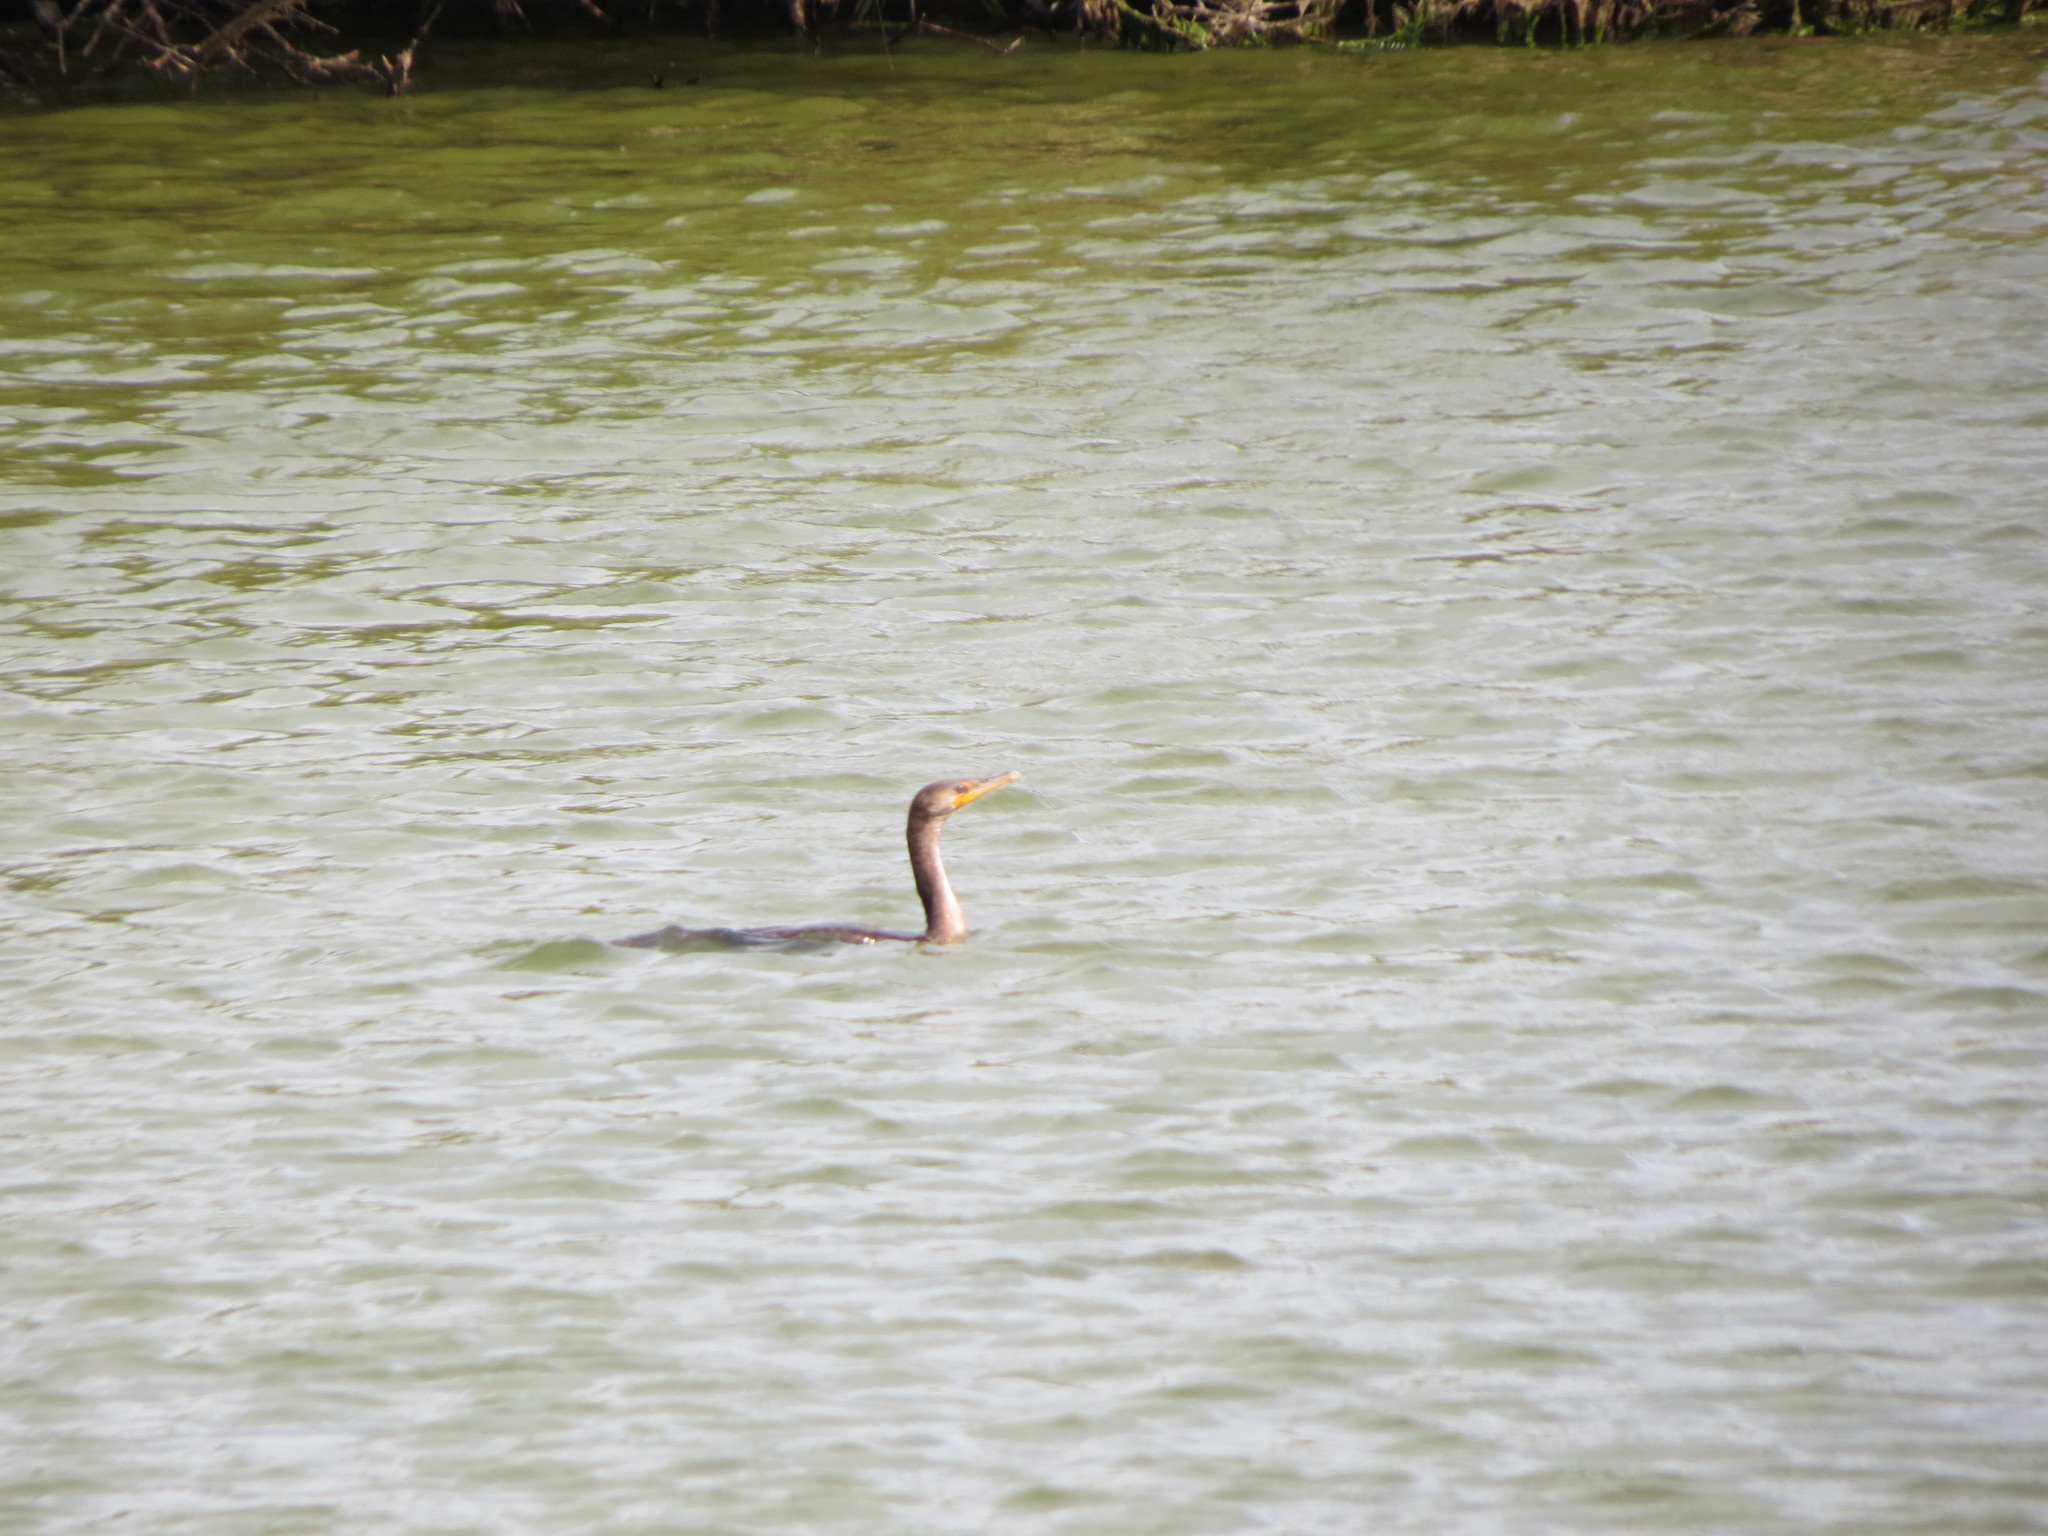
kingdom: Animalia
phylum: Chordata
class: Aves
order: Suliformes
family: Phalacrocoracidae
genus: Phalacrocorax
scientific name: Phalacrocorax auritus
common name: Double-crested cormorant
